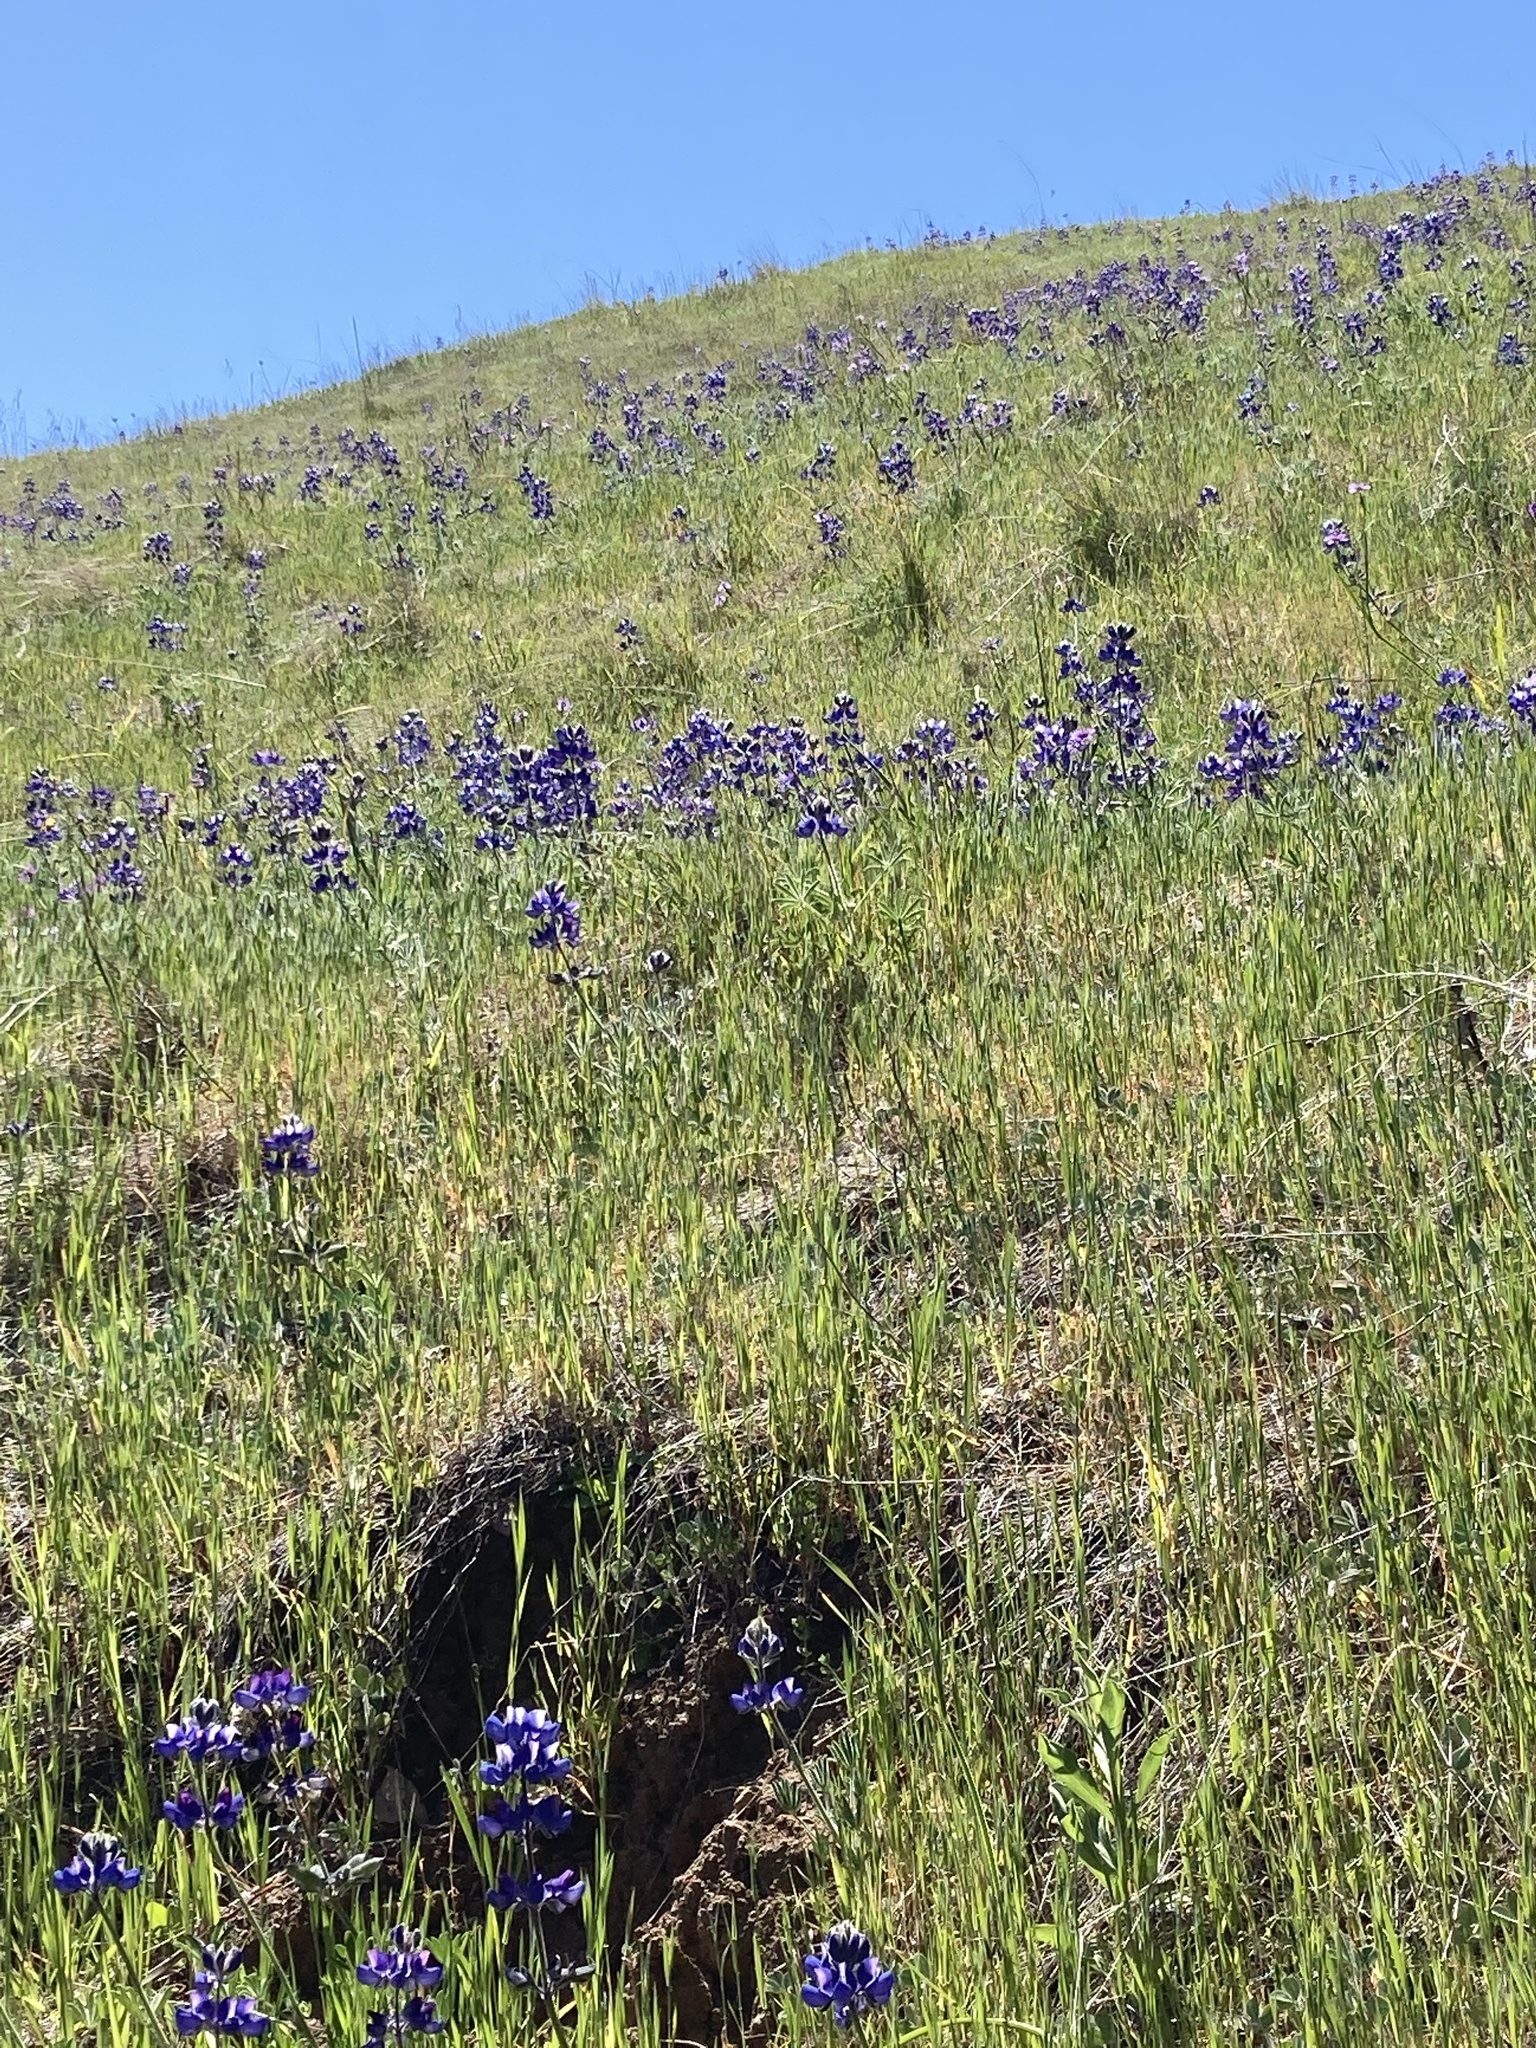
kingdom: Plantae
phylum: Tracheophyta
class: Magnoliopsida
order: Fabales
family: Fabaceae
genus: Lupinus
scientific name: Lupinus nanus
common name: Orean blue lupin
